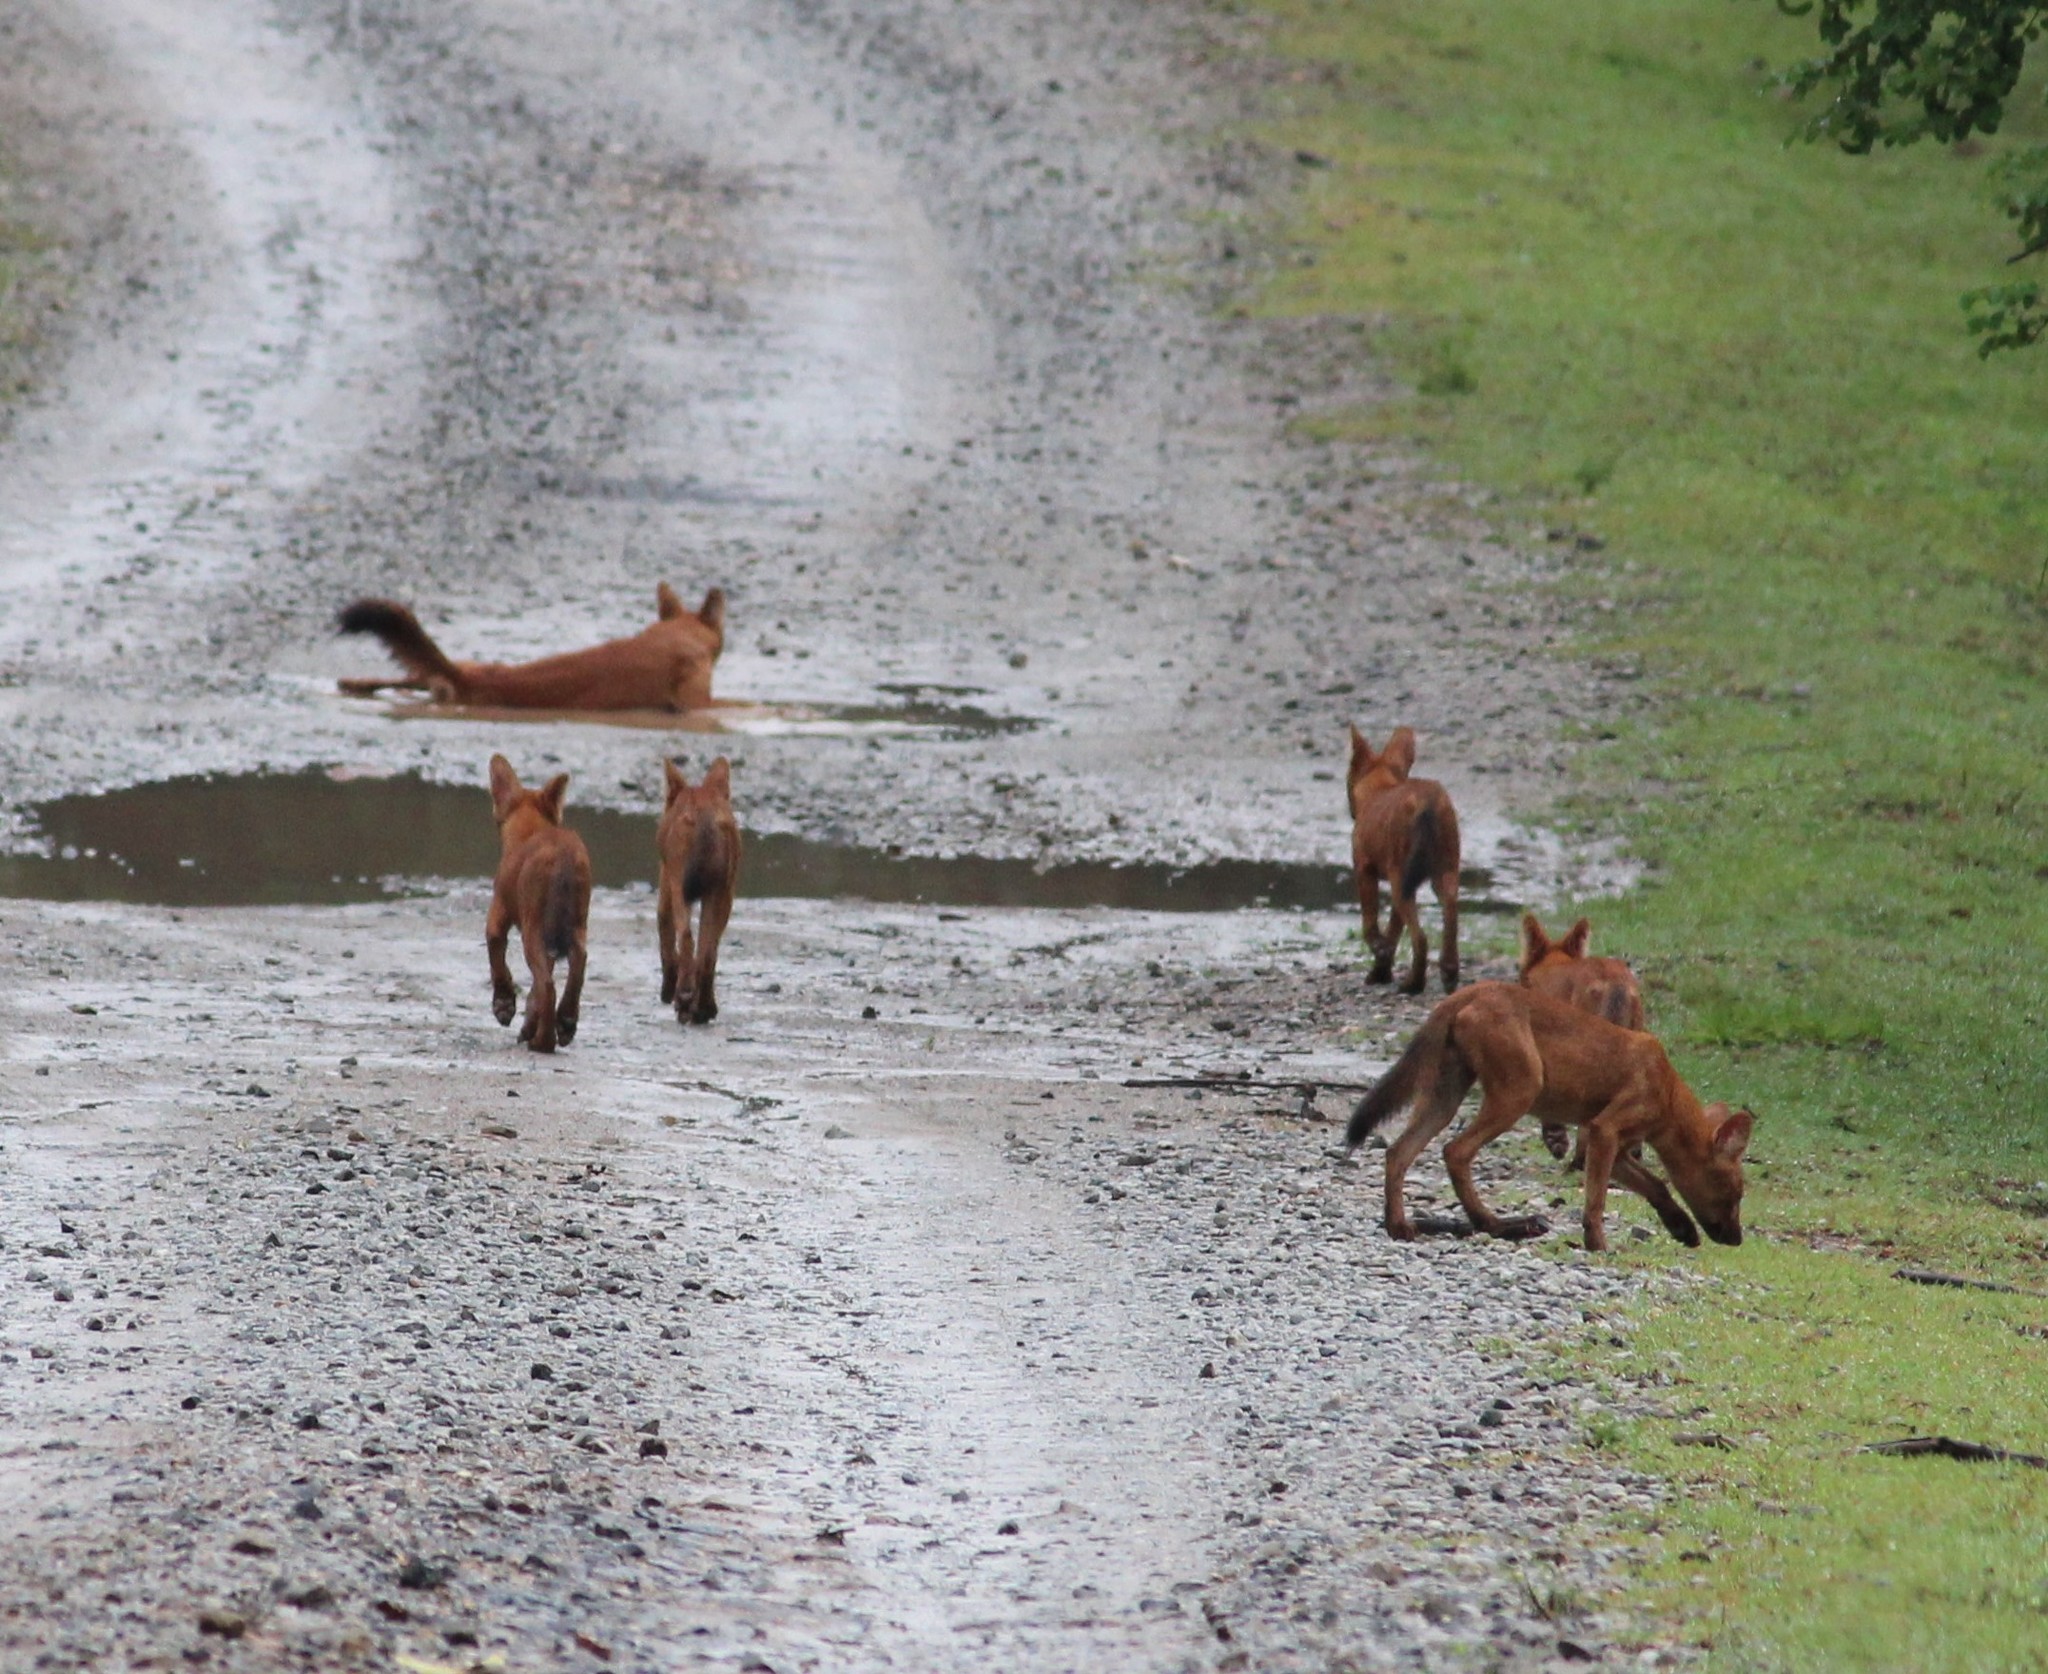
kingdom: Animalia
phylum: Chordata
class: Mammalia
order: Carnivora
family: Canidae
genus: Cuon
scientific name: Cuon alpinus
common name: Dhole
